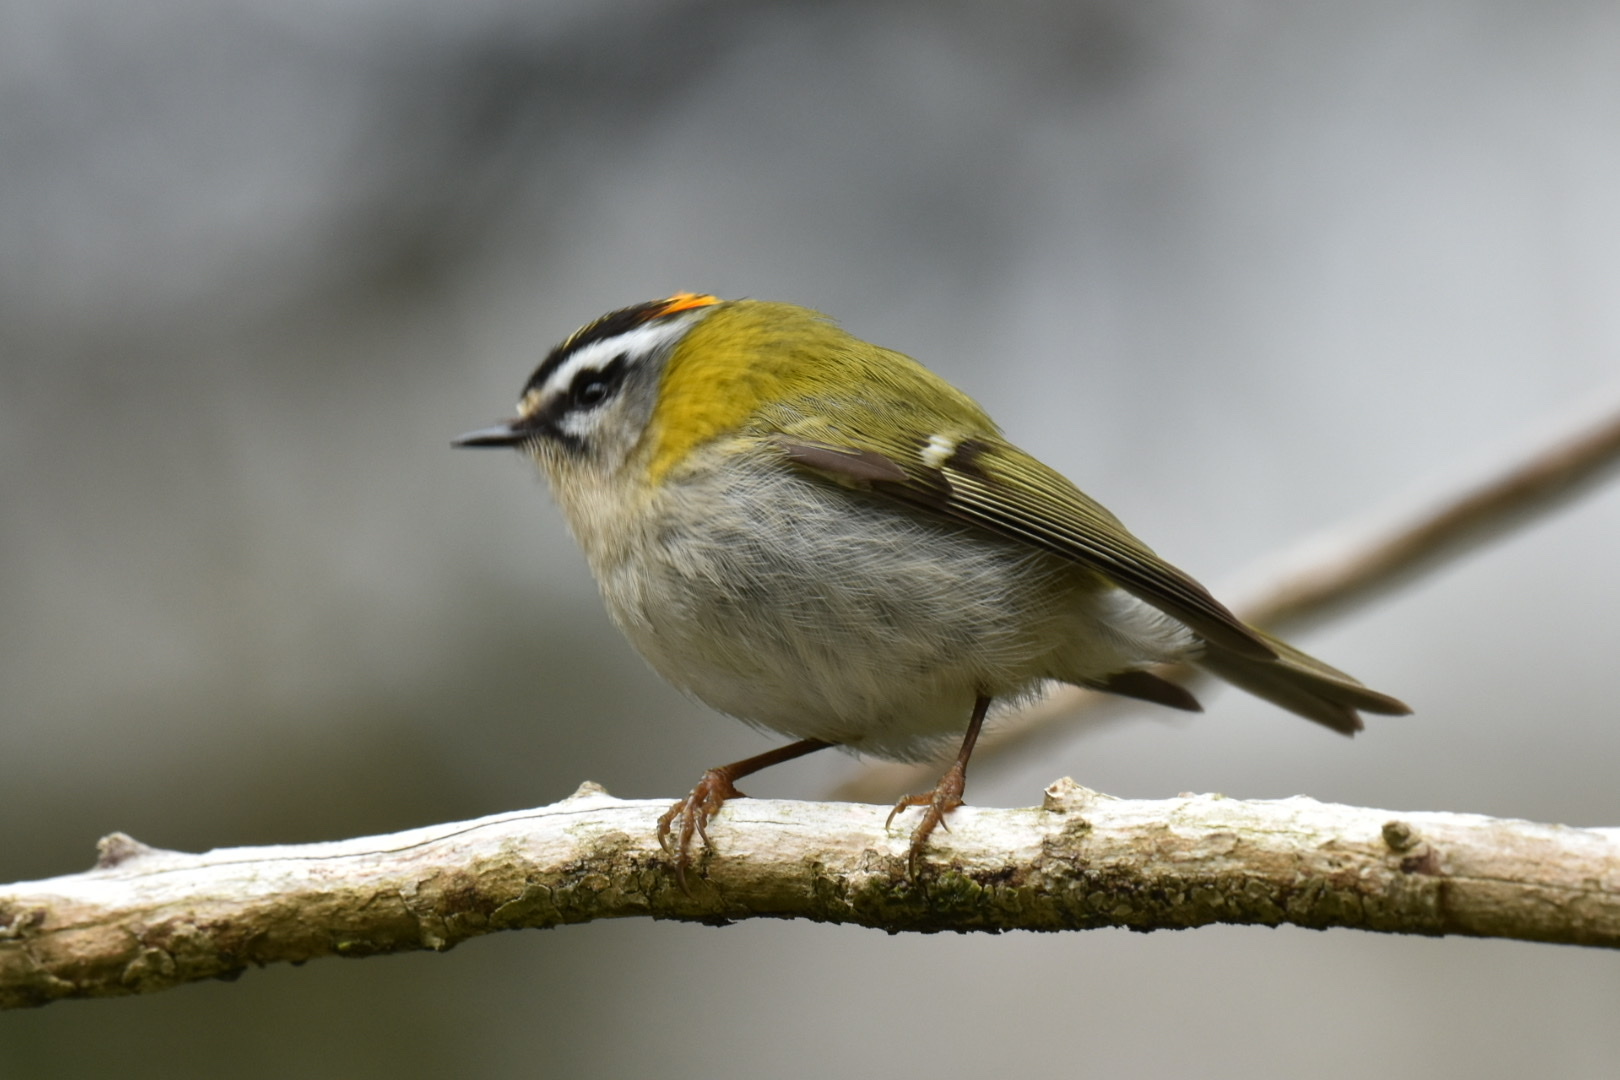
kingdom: Animalia
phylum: Chordata
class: Aves
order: Passeriformes
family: Regulidae
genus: Regulus
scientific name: Regulus ignicapilla
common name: Firecrest
